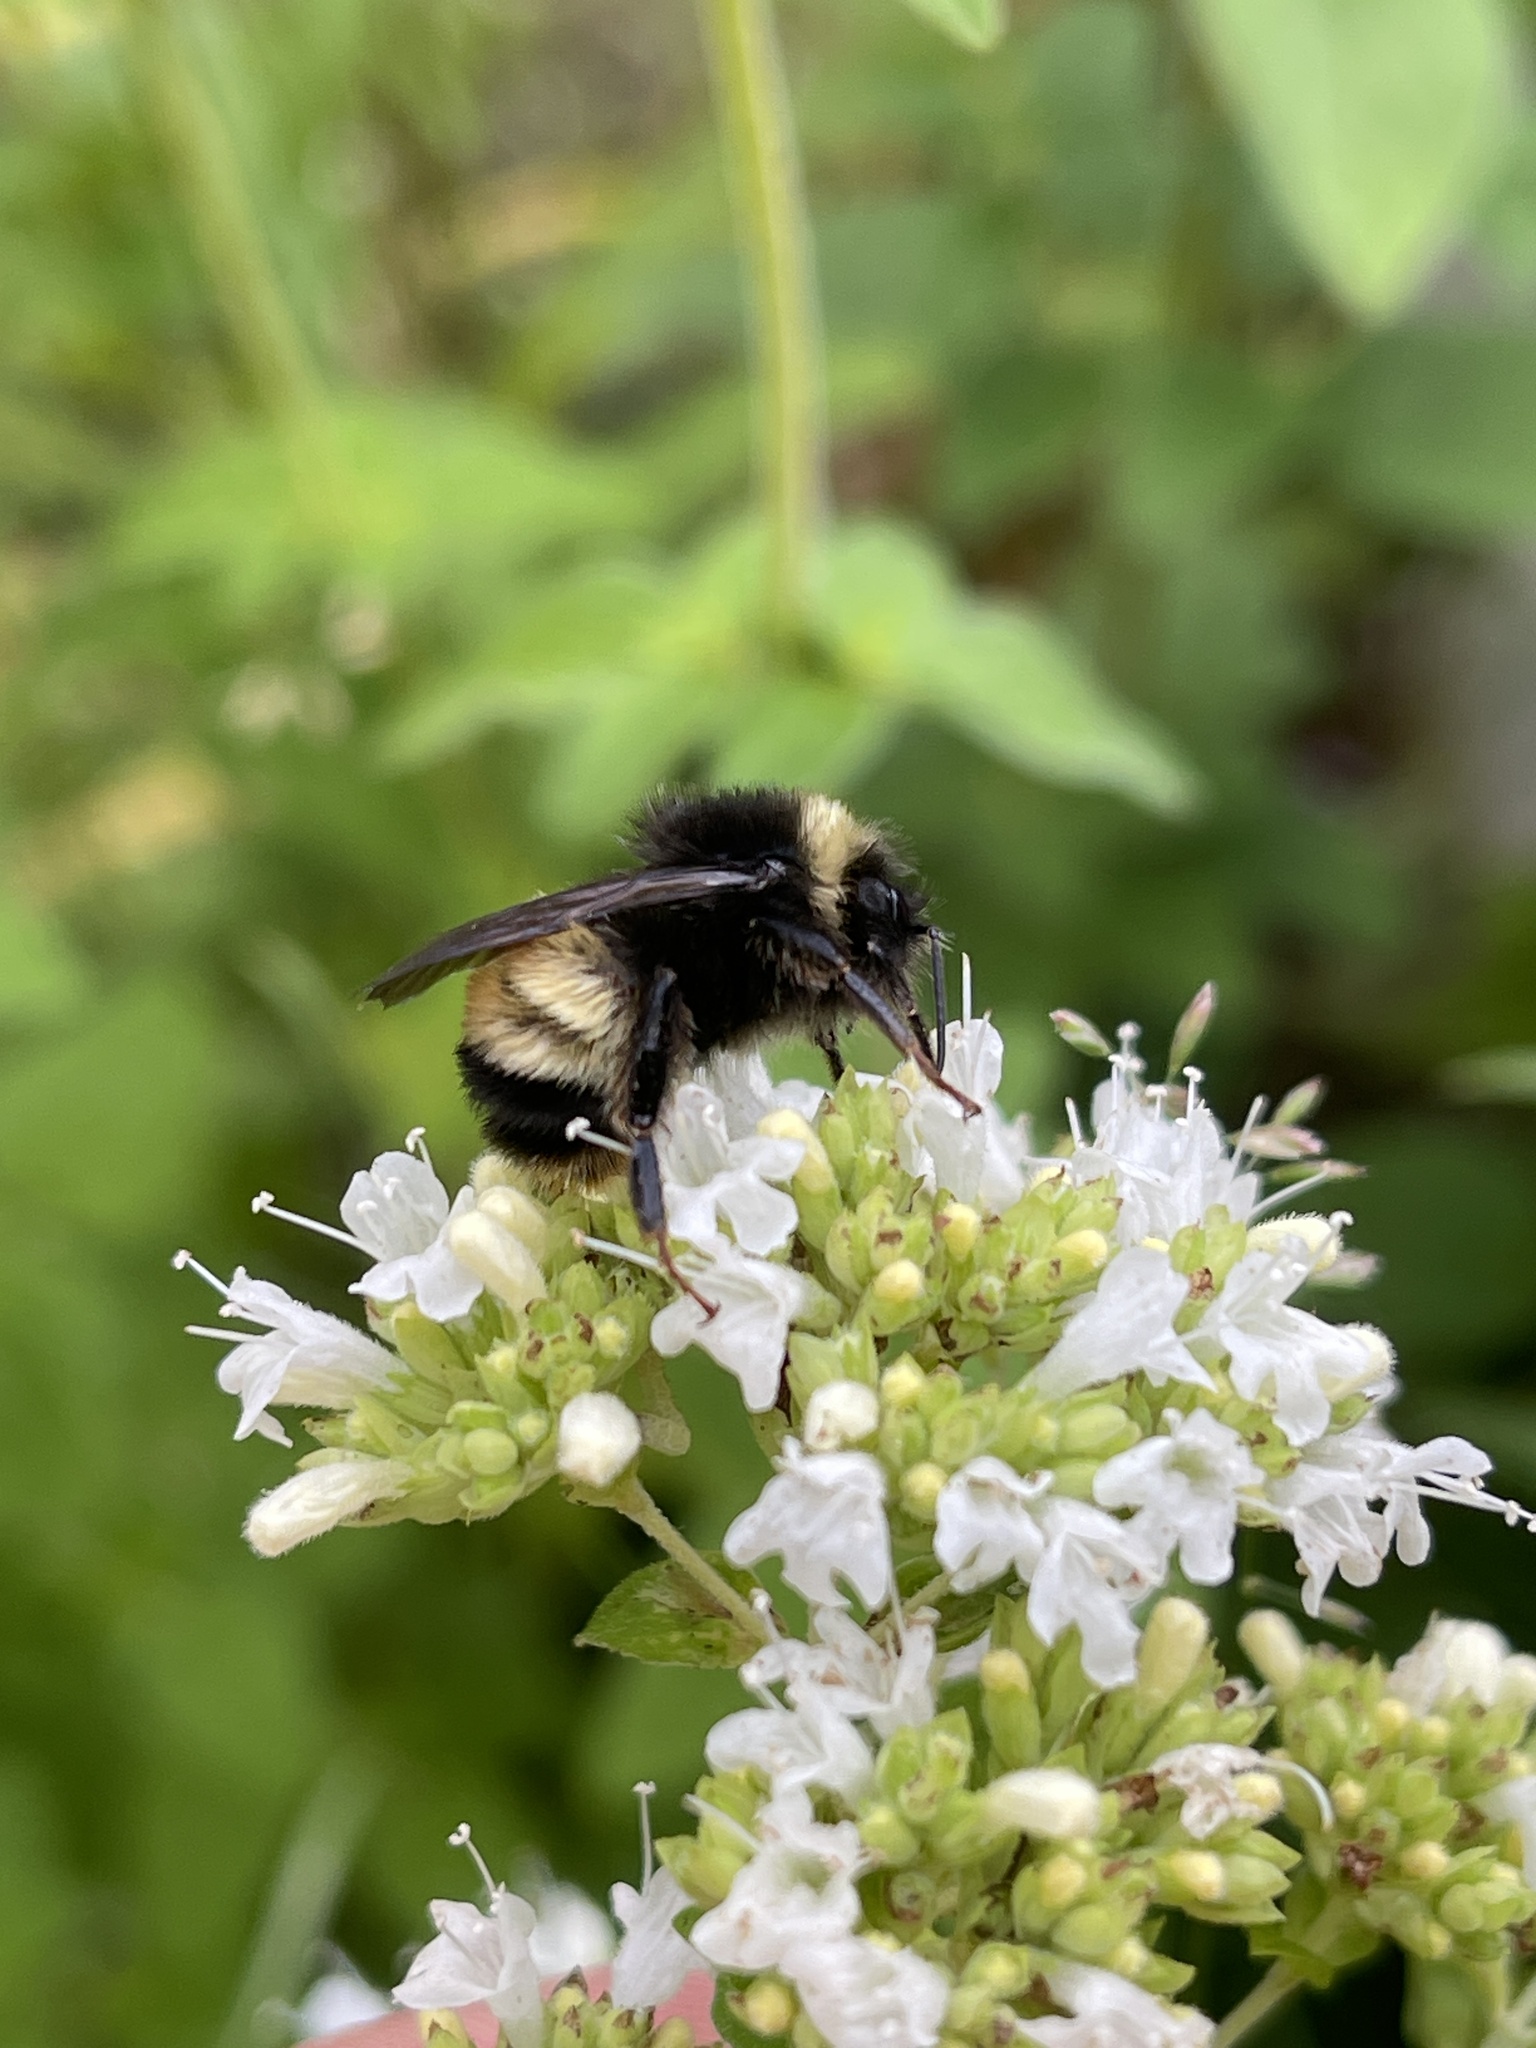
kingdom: Animalia
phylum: Arthropoda
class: Insecta
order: Hymenoptera
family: Apidae
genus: Bombus
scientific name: Bombus terricola
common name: Yellow-banded bumble bee
